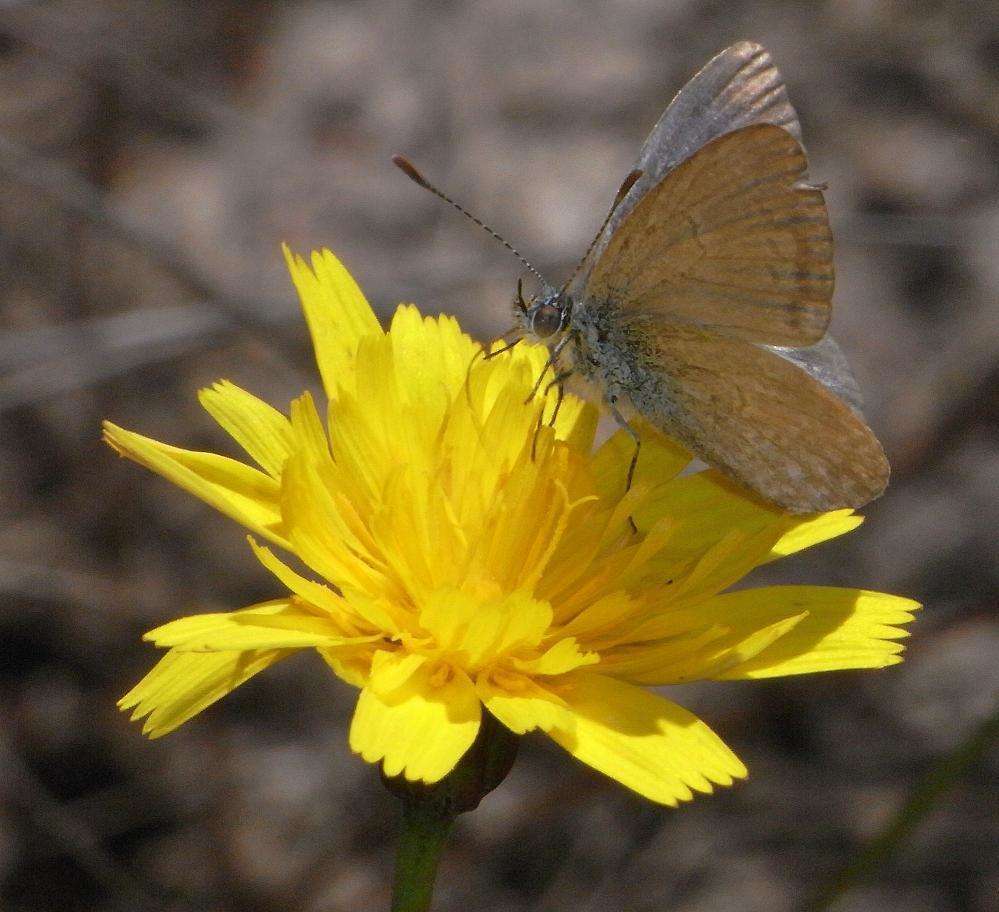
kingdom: Animalia
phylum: Arthropoda
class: Insecta
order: Lepidoptera
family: Lycaenidae
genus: Zizina
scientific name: Zizina labradus
